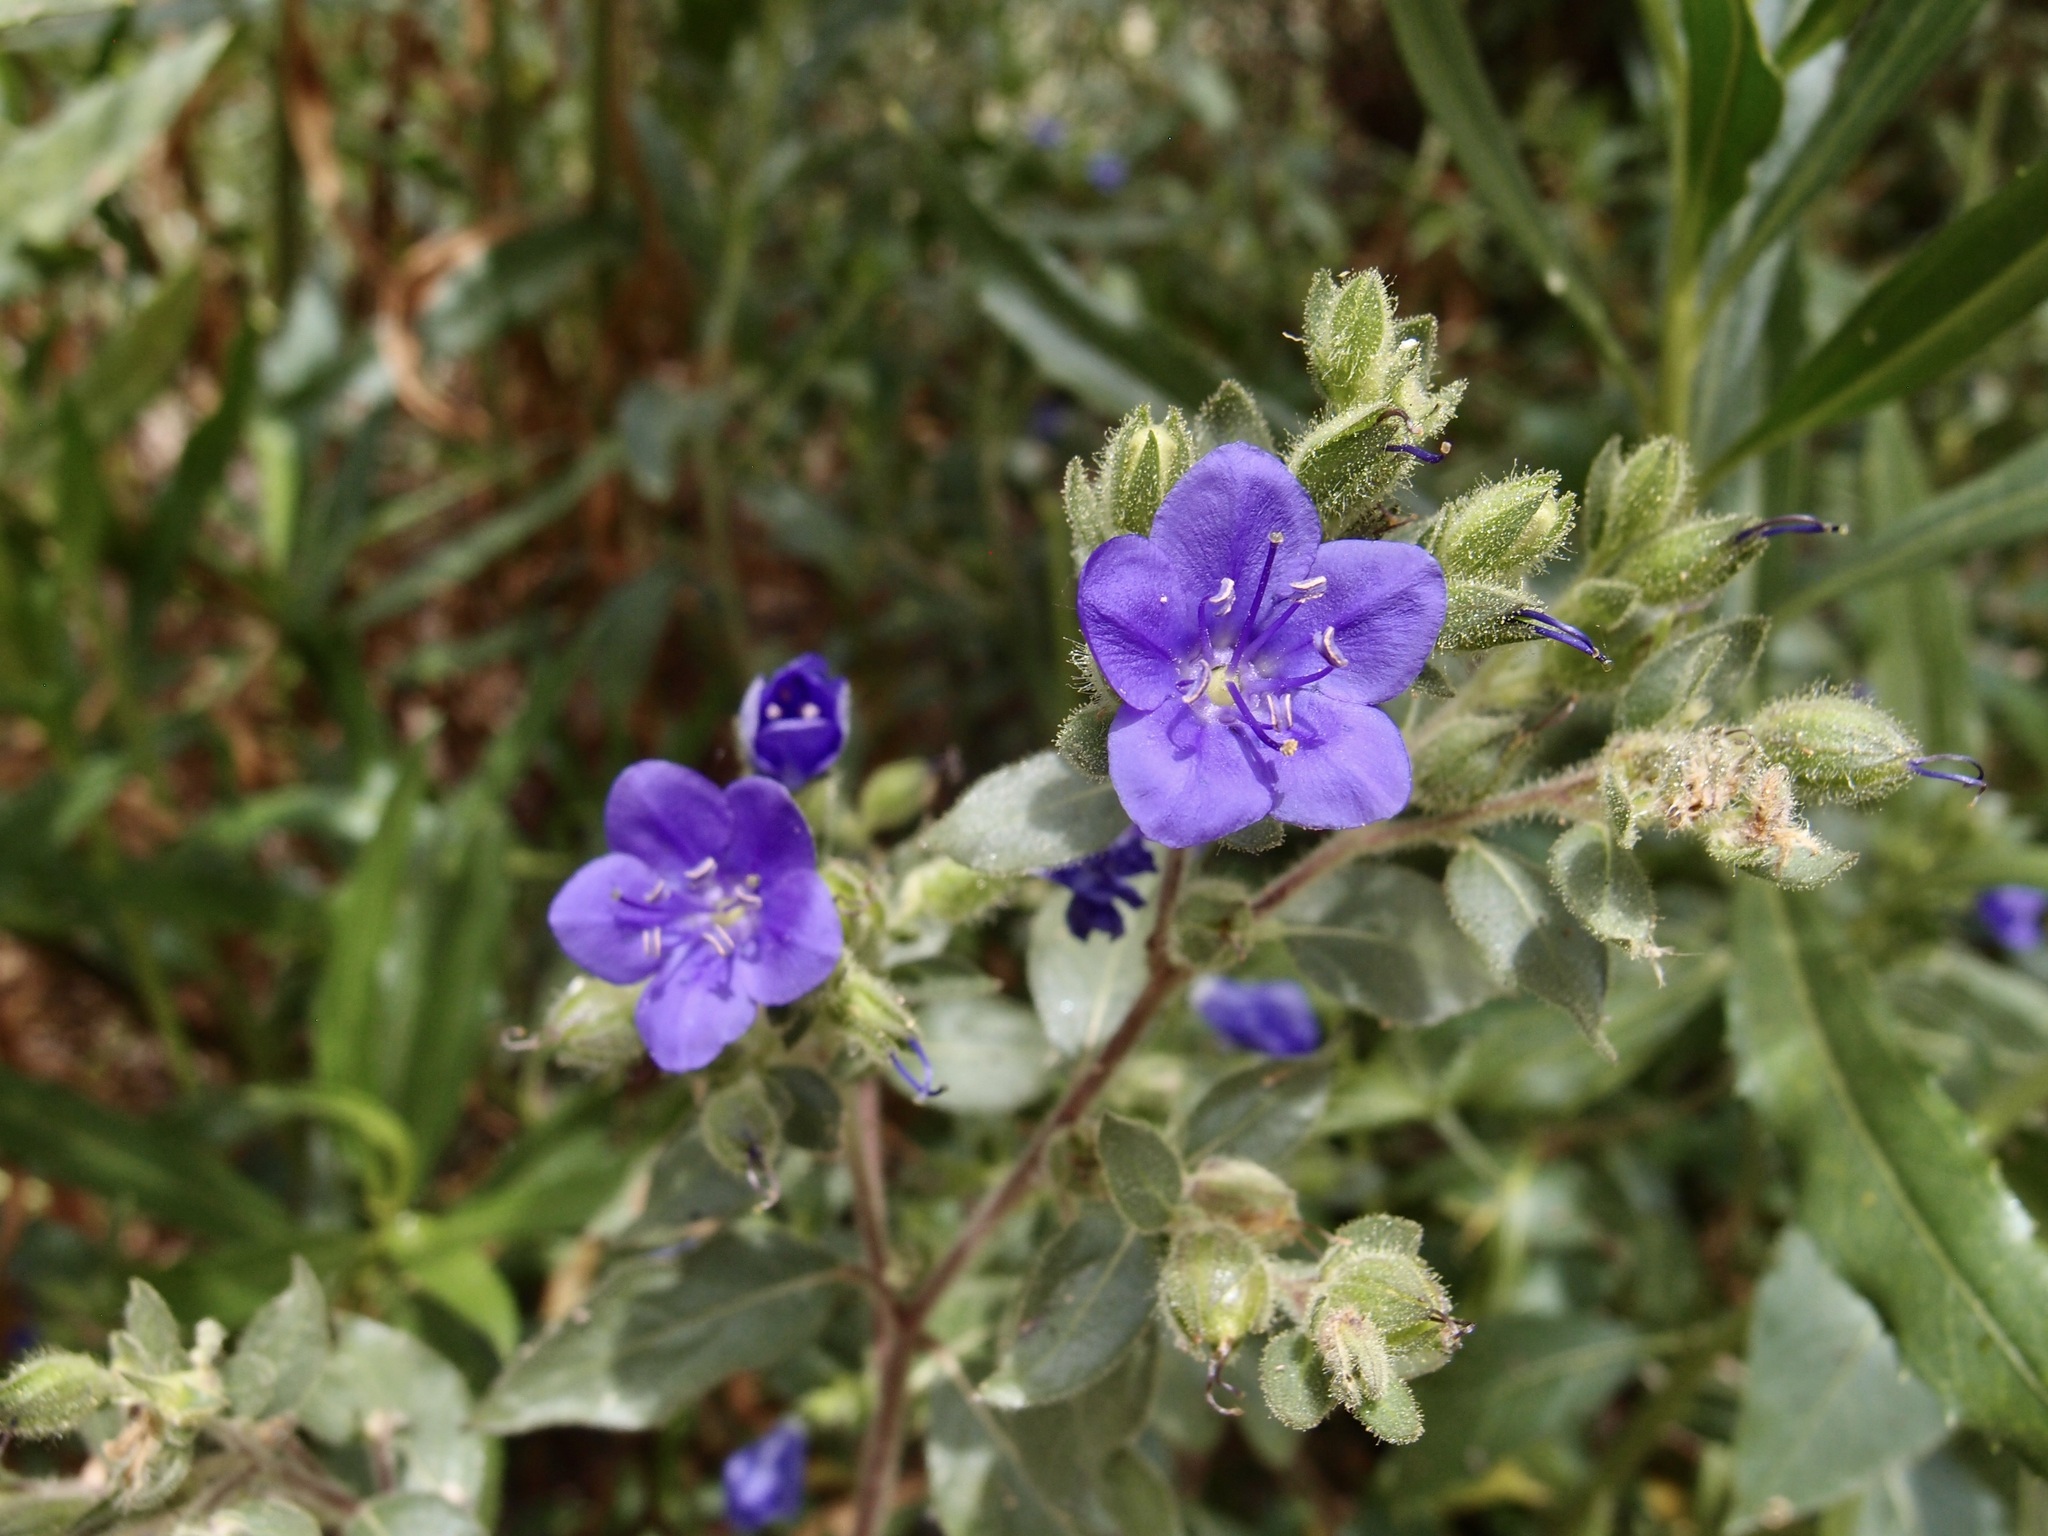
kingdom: Plantae
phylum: Tracheophyta
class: Magnoliopsida
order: Solanales
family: Hydroleaceae
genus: Hydrolea
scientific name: Hydrolea spinosa
